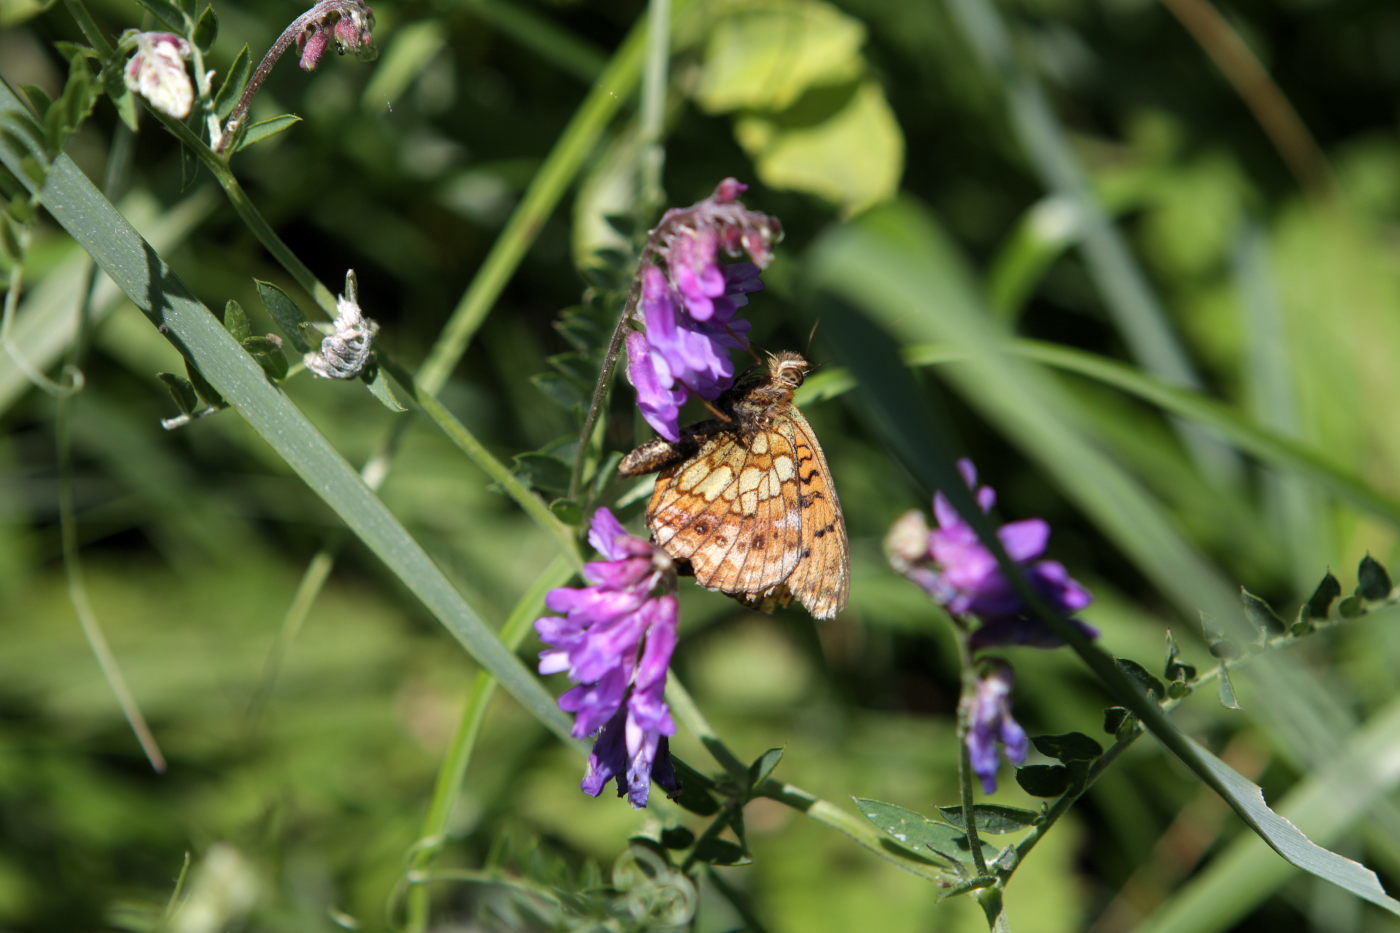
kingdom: Animalia
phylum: Arthropoda
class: Insecta
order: Lepidoptera
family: Nymphalidae
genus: Brenthis
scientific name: Brenthis ino
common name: Lesser marbled fritillary
